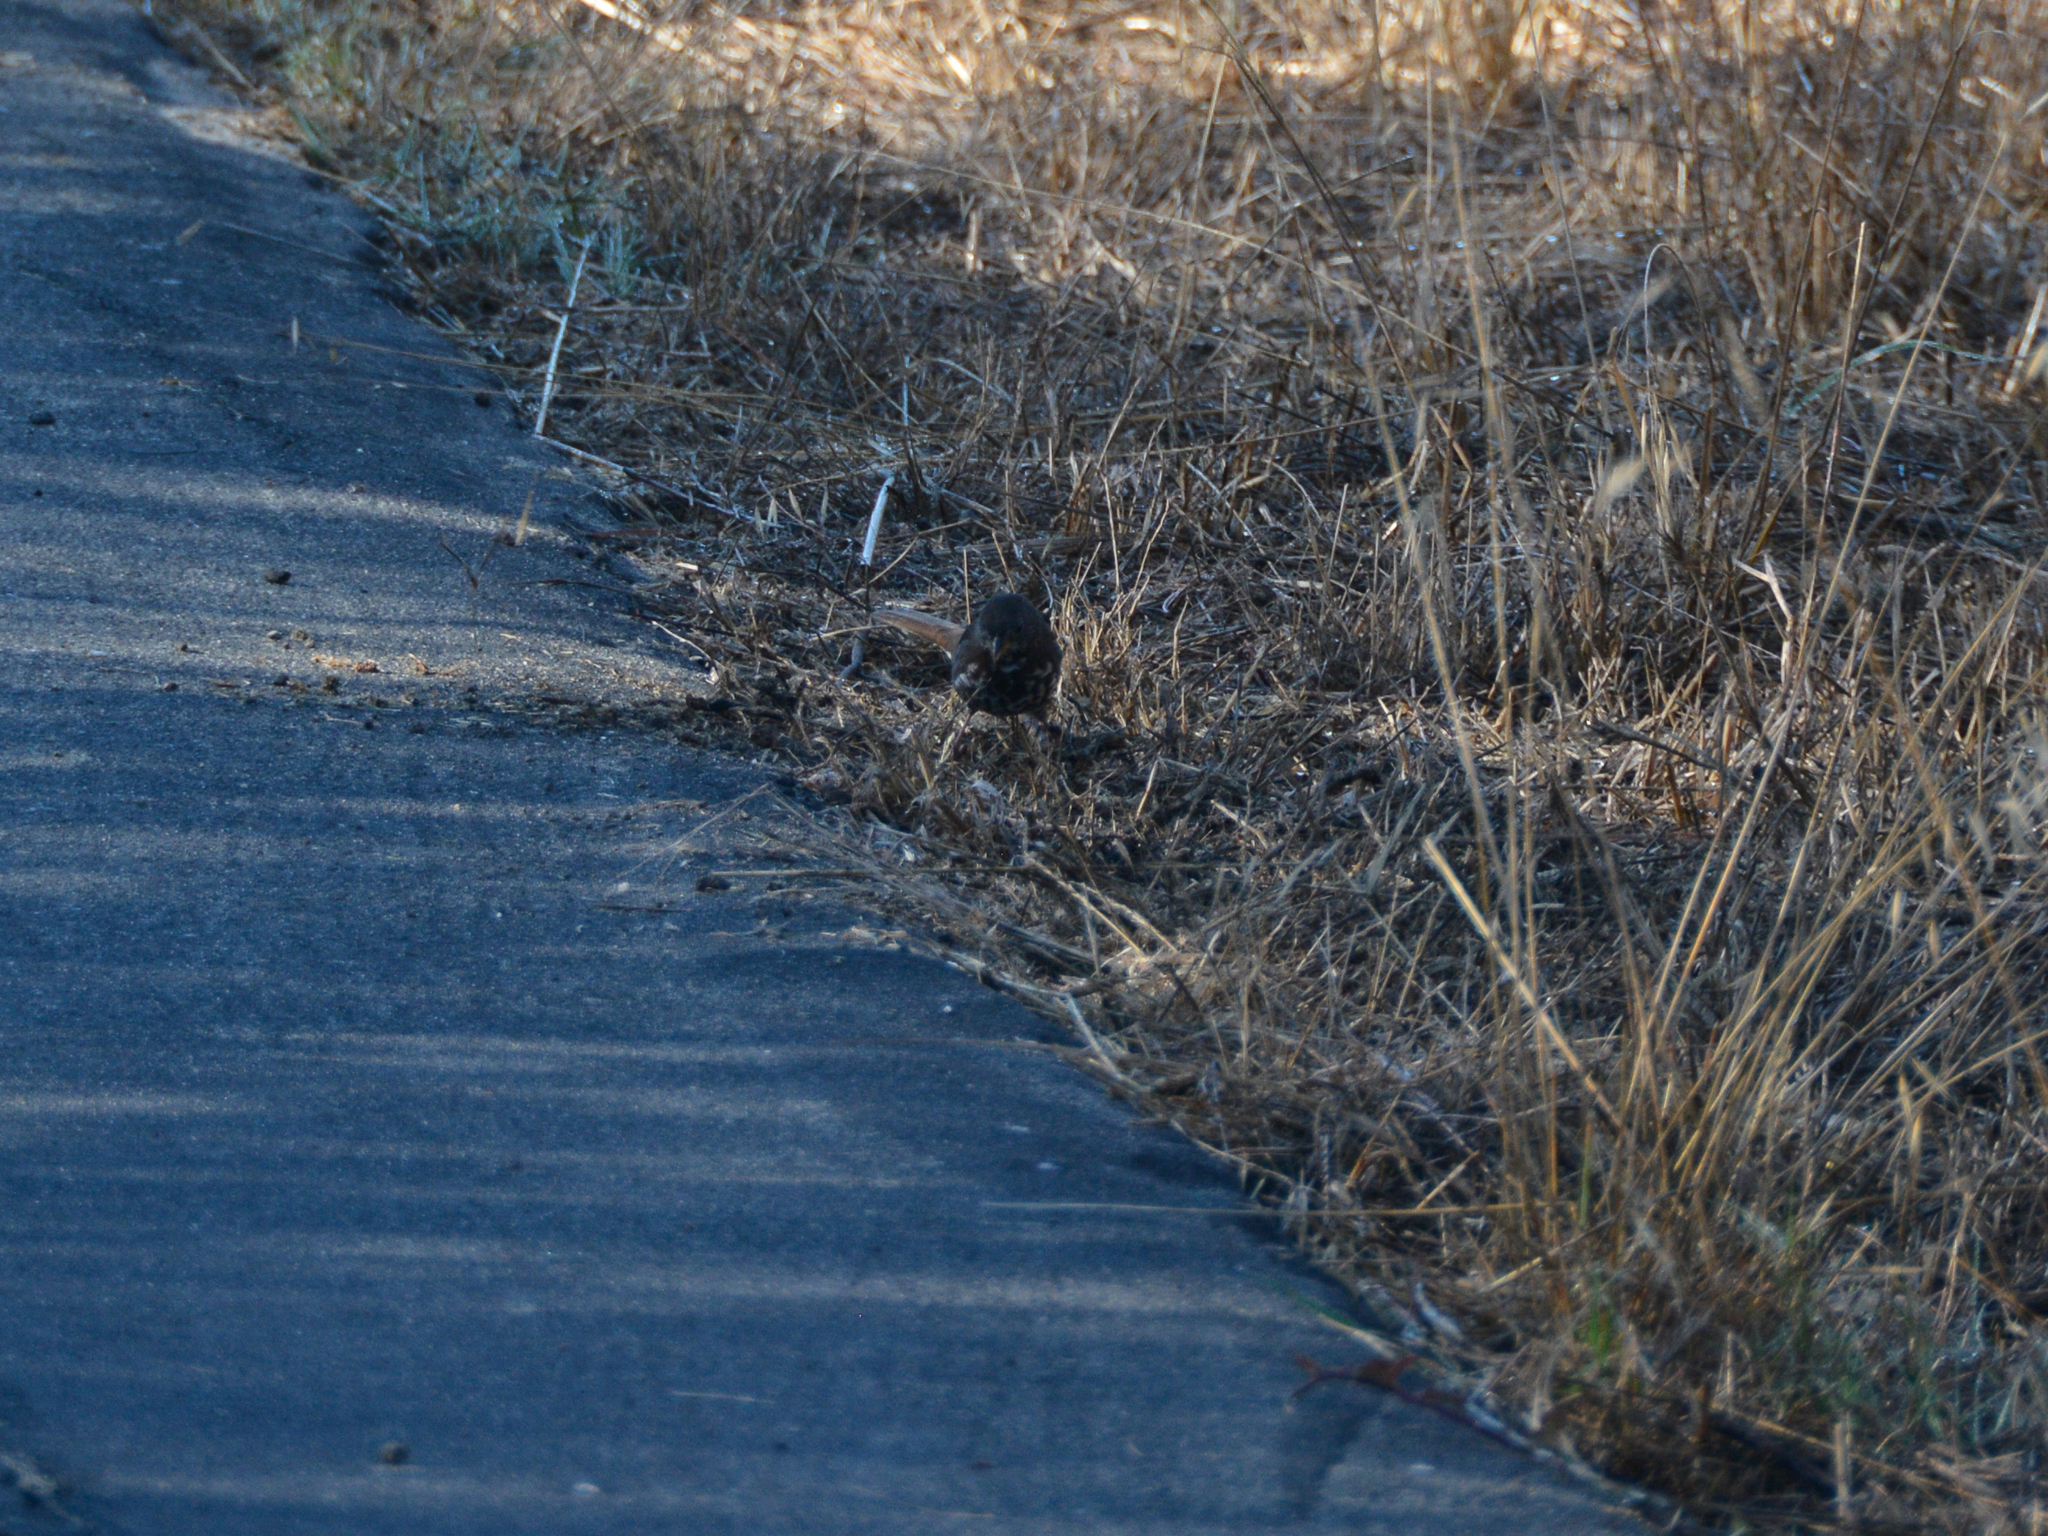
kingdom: Animalia
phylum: Chordata
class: Aves
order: Passeriformes
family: Passerellidae
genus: Passerella
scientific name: Passerella iliaca
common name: Fox sparrow
